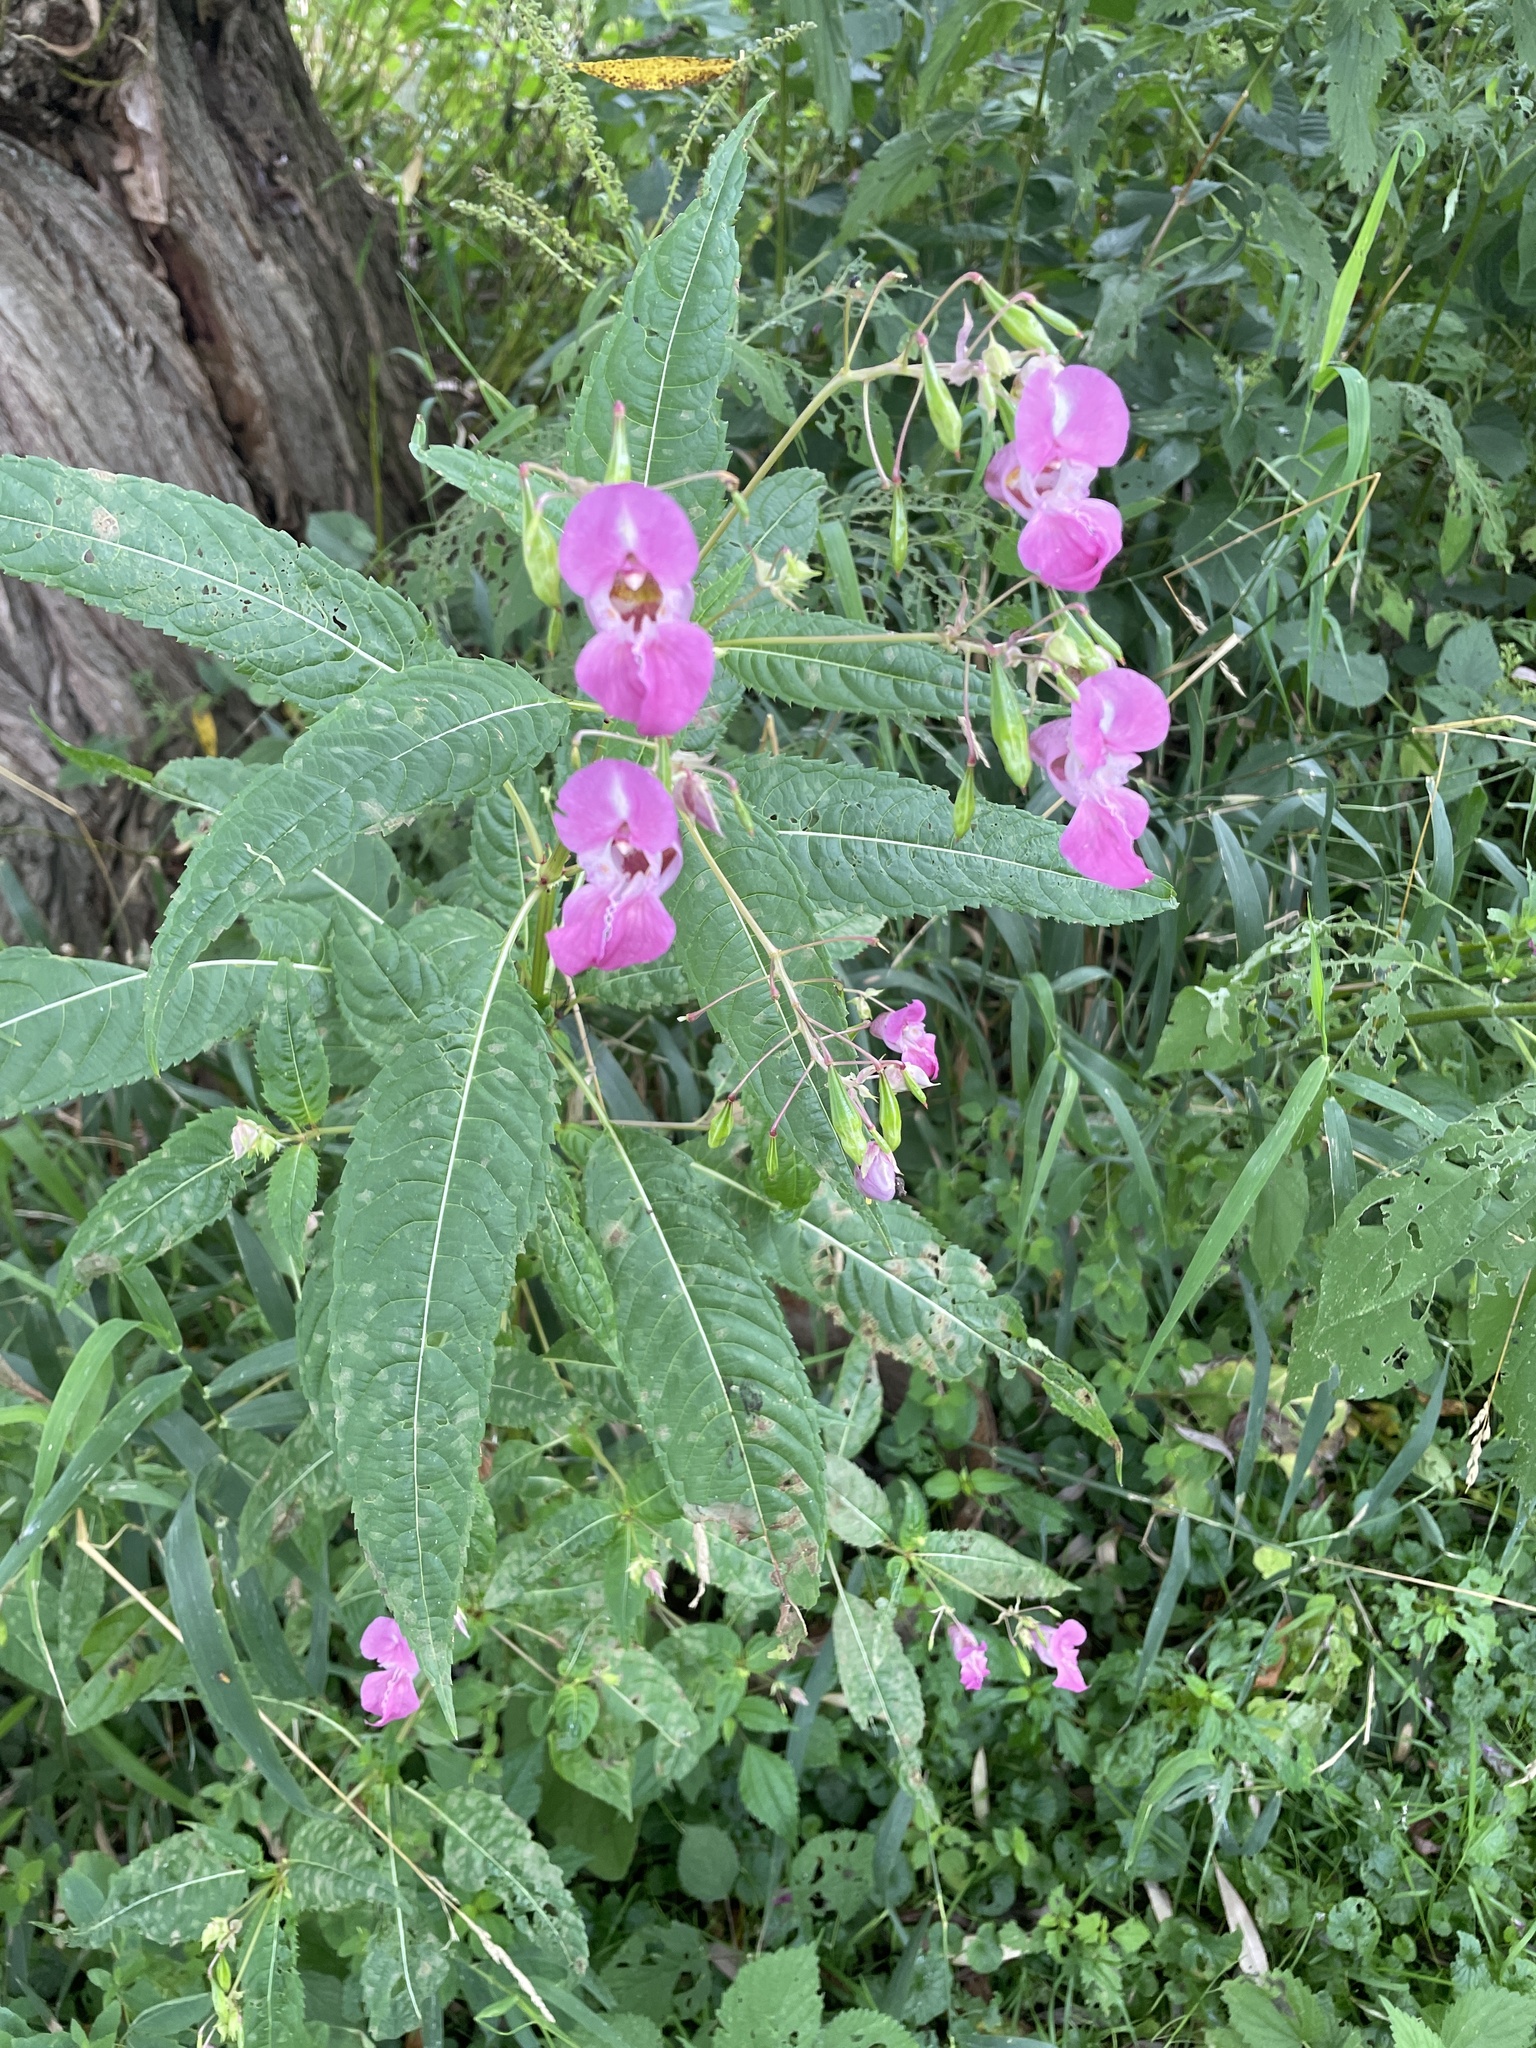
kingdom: Plantae
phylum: Tracheophyta
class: Magnoliopsida
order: Ericales
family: Balsaminaceae
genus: Impatiens
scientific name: Impatiens glandulifera
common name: Himalayan balsam
